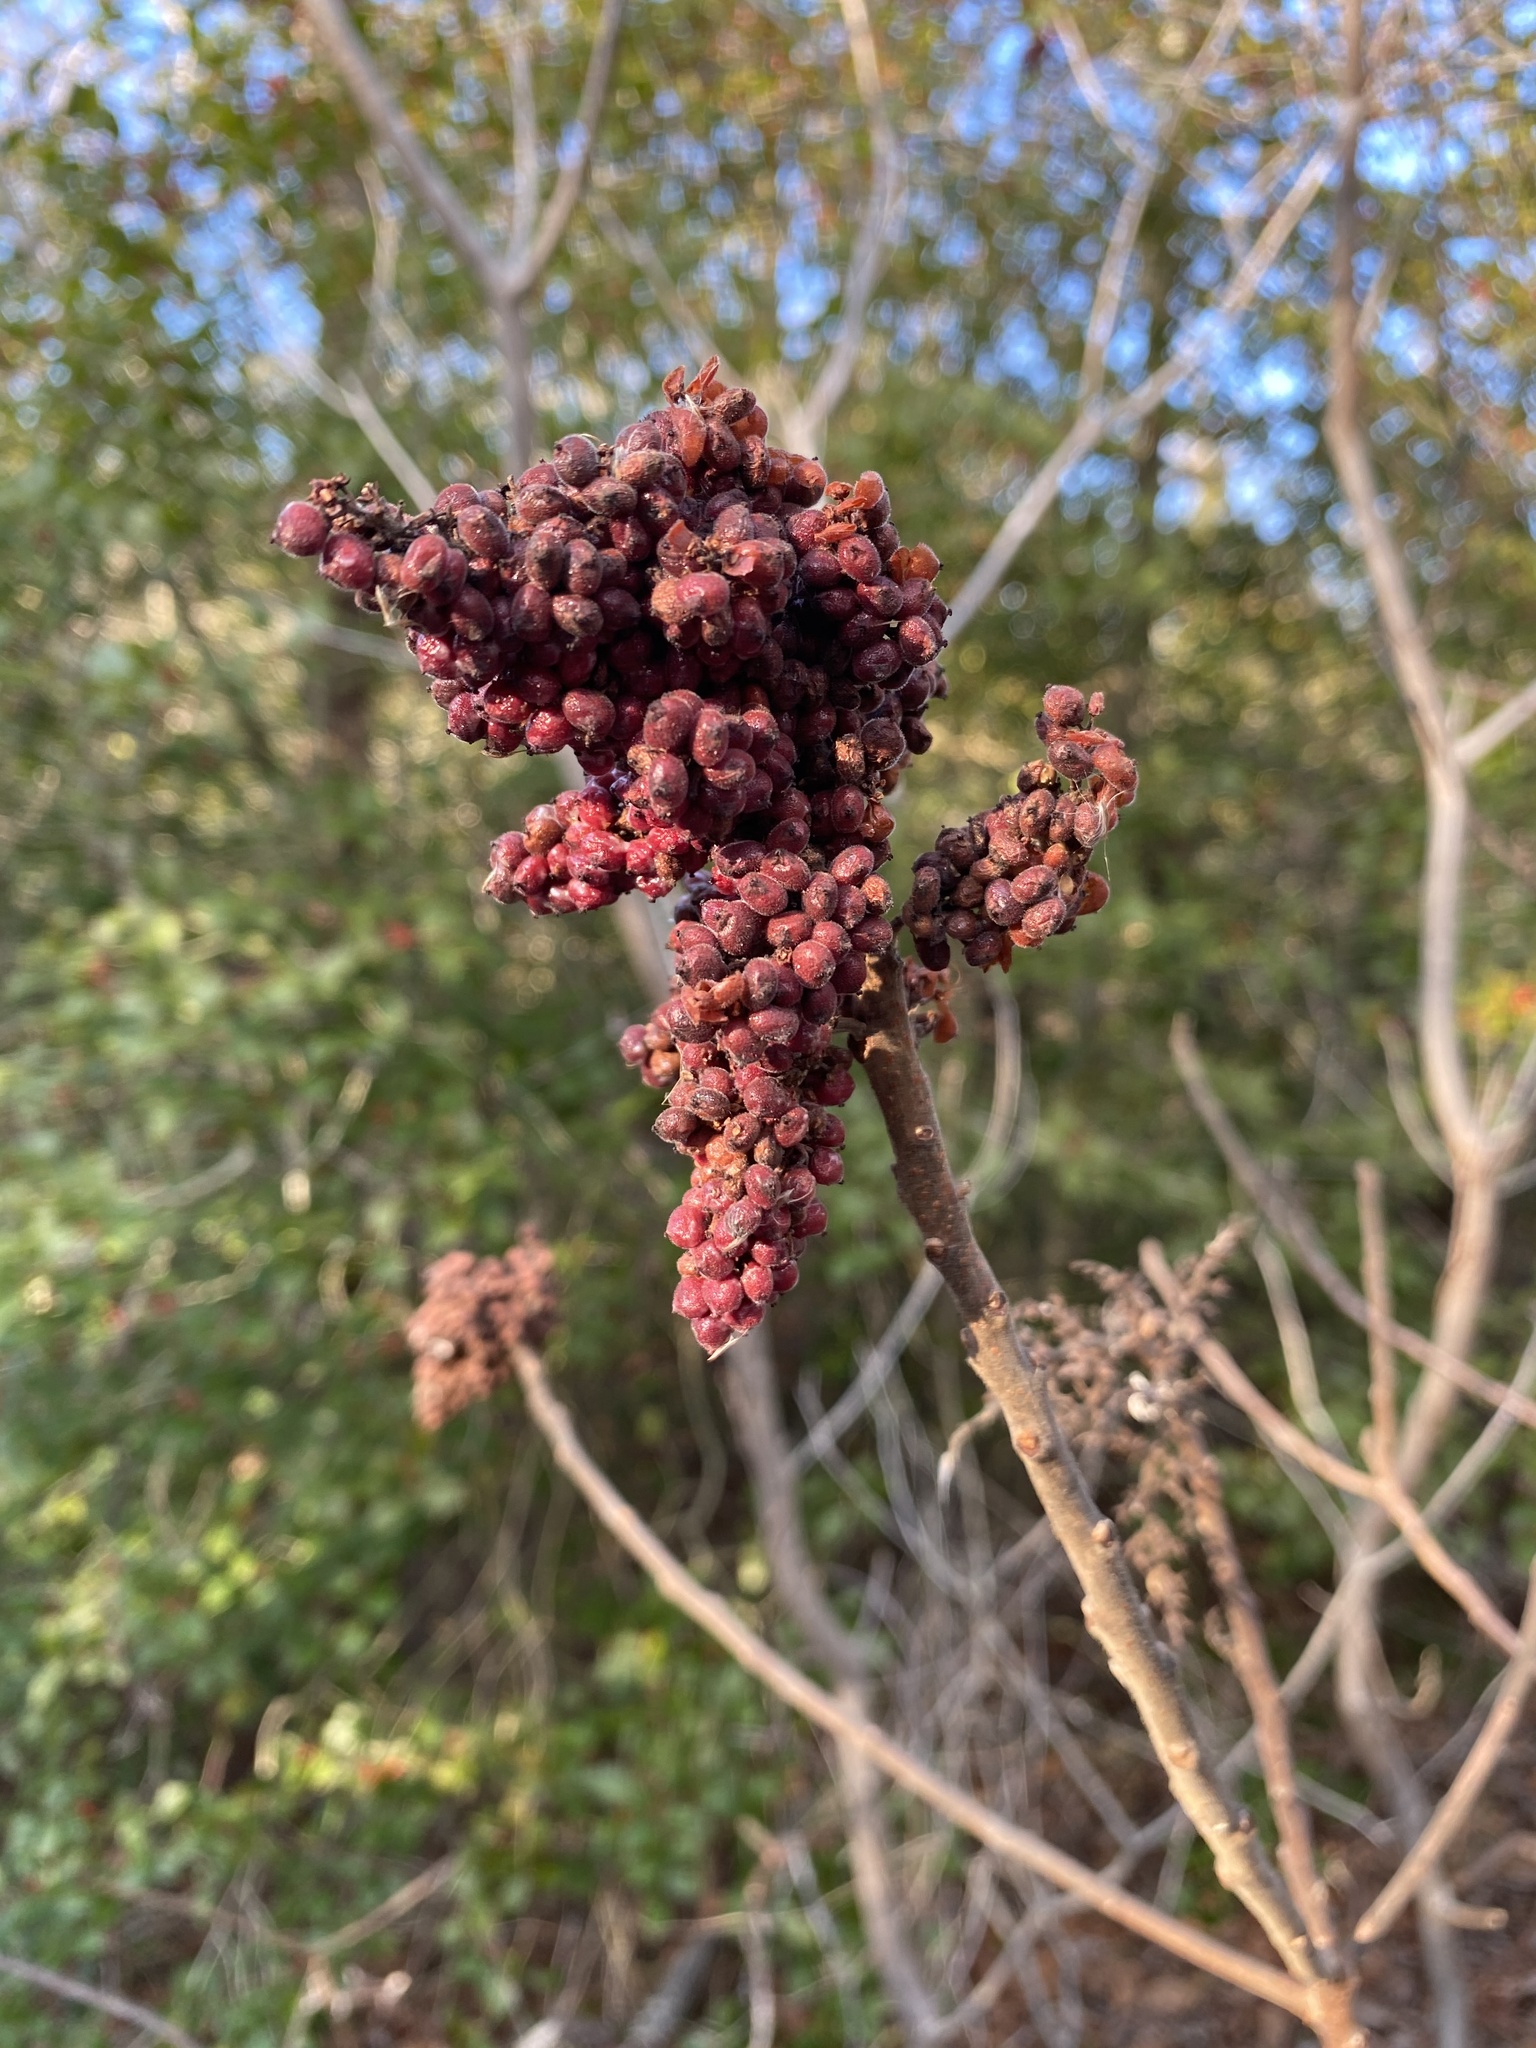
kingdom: Plantae
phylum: Tracheophyta
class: Magnoliopsida
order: Sapindales
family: Anacardiaceae
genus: Rhus
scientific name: Rhus copallina
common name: Shining sumac
